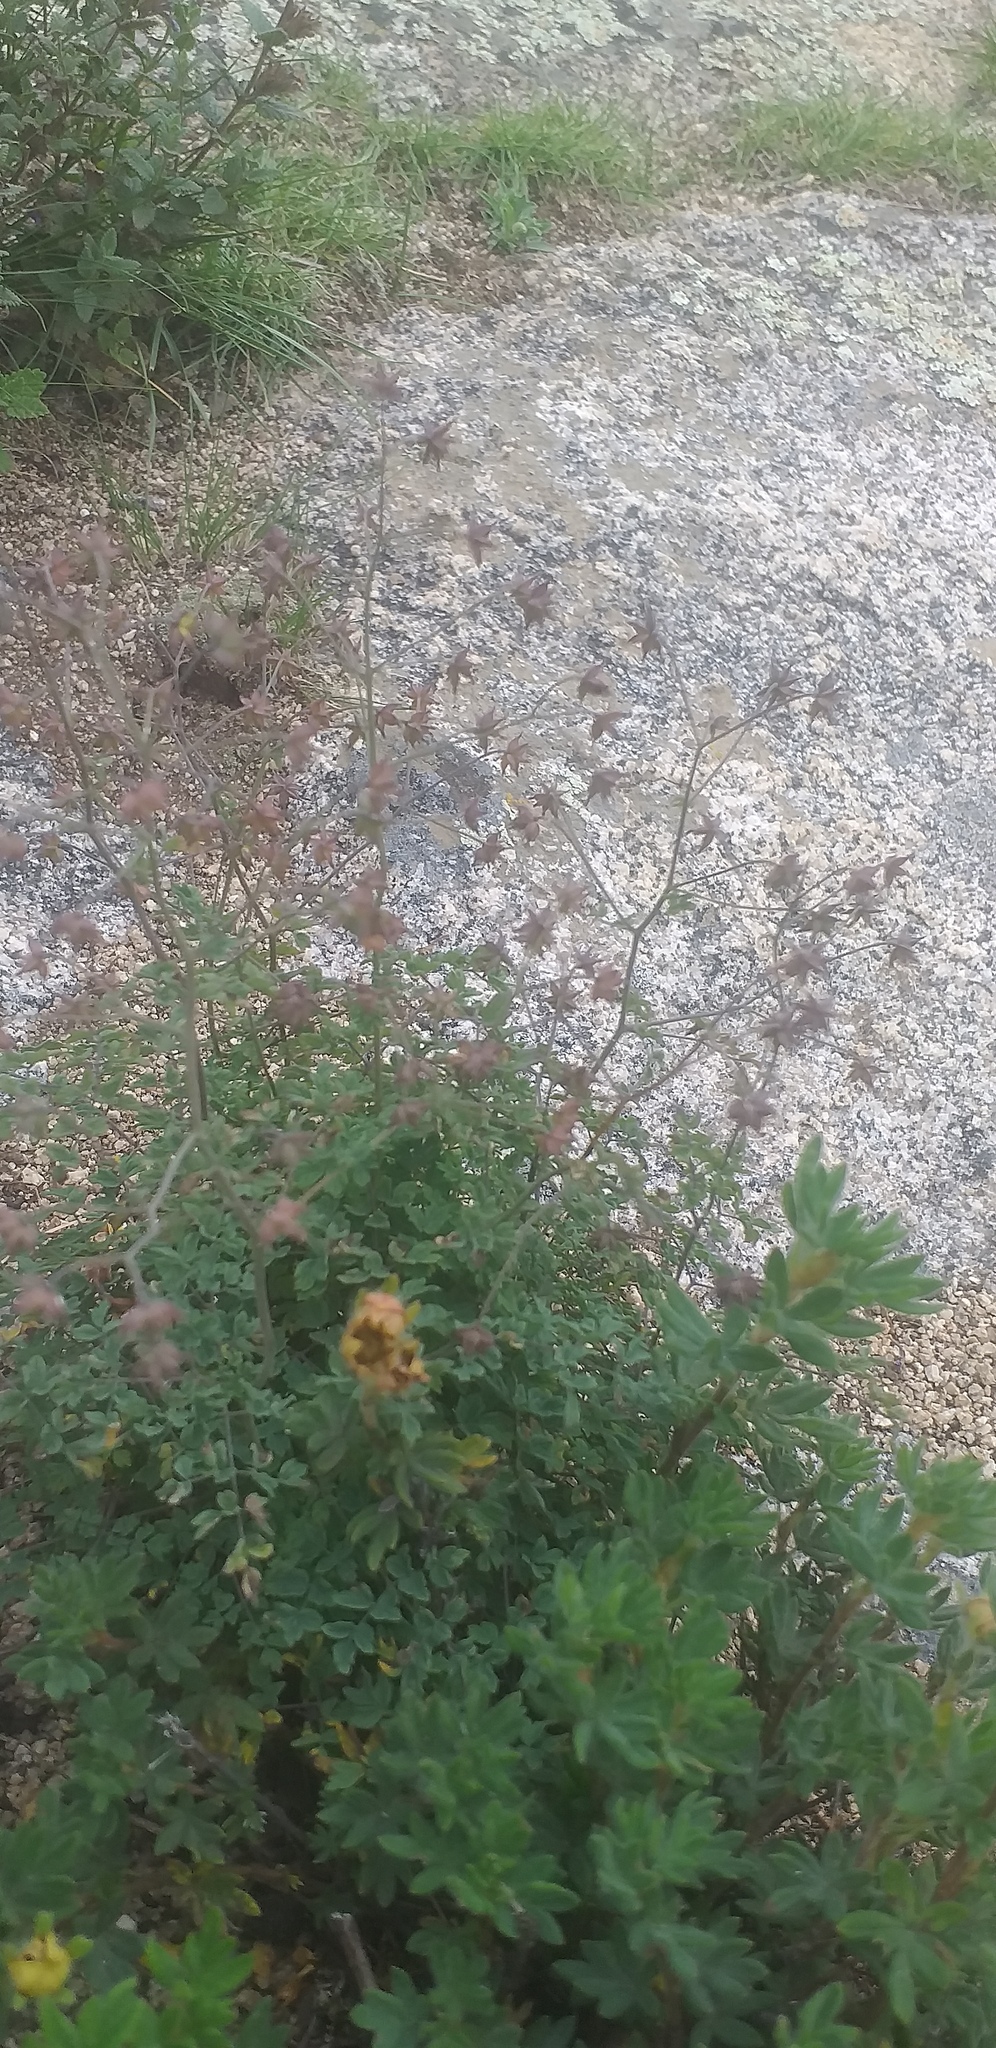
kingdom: Plantae
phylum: Tracheophyta
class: Magnoliopsida
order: Ranunculales
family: Ranunculaceae
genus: Thalictrum
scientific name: Thalictrum foetidum
